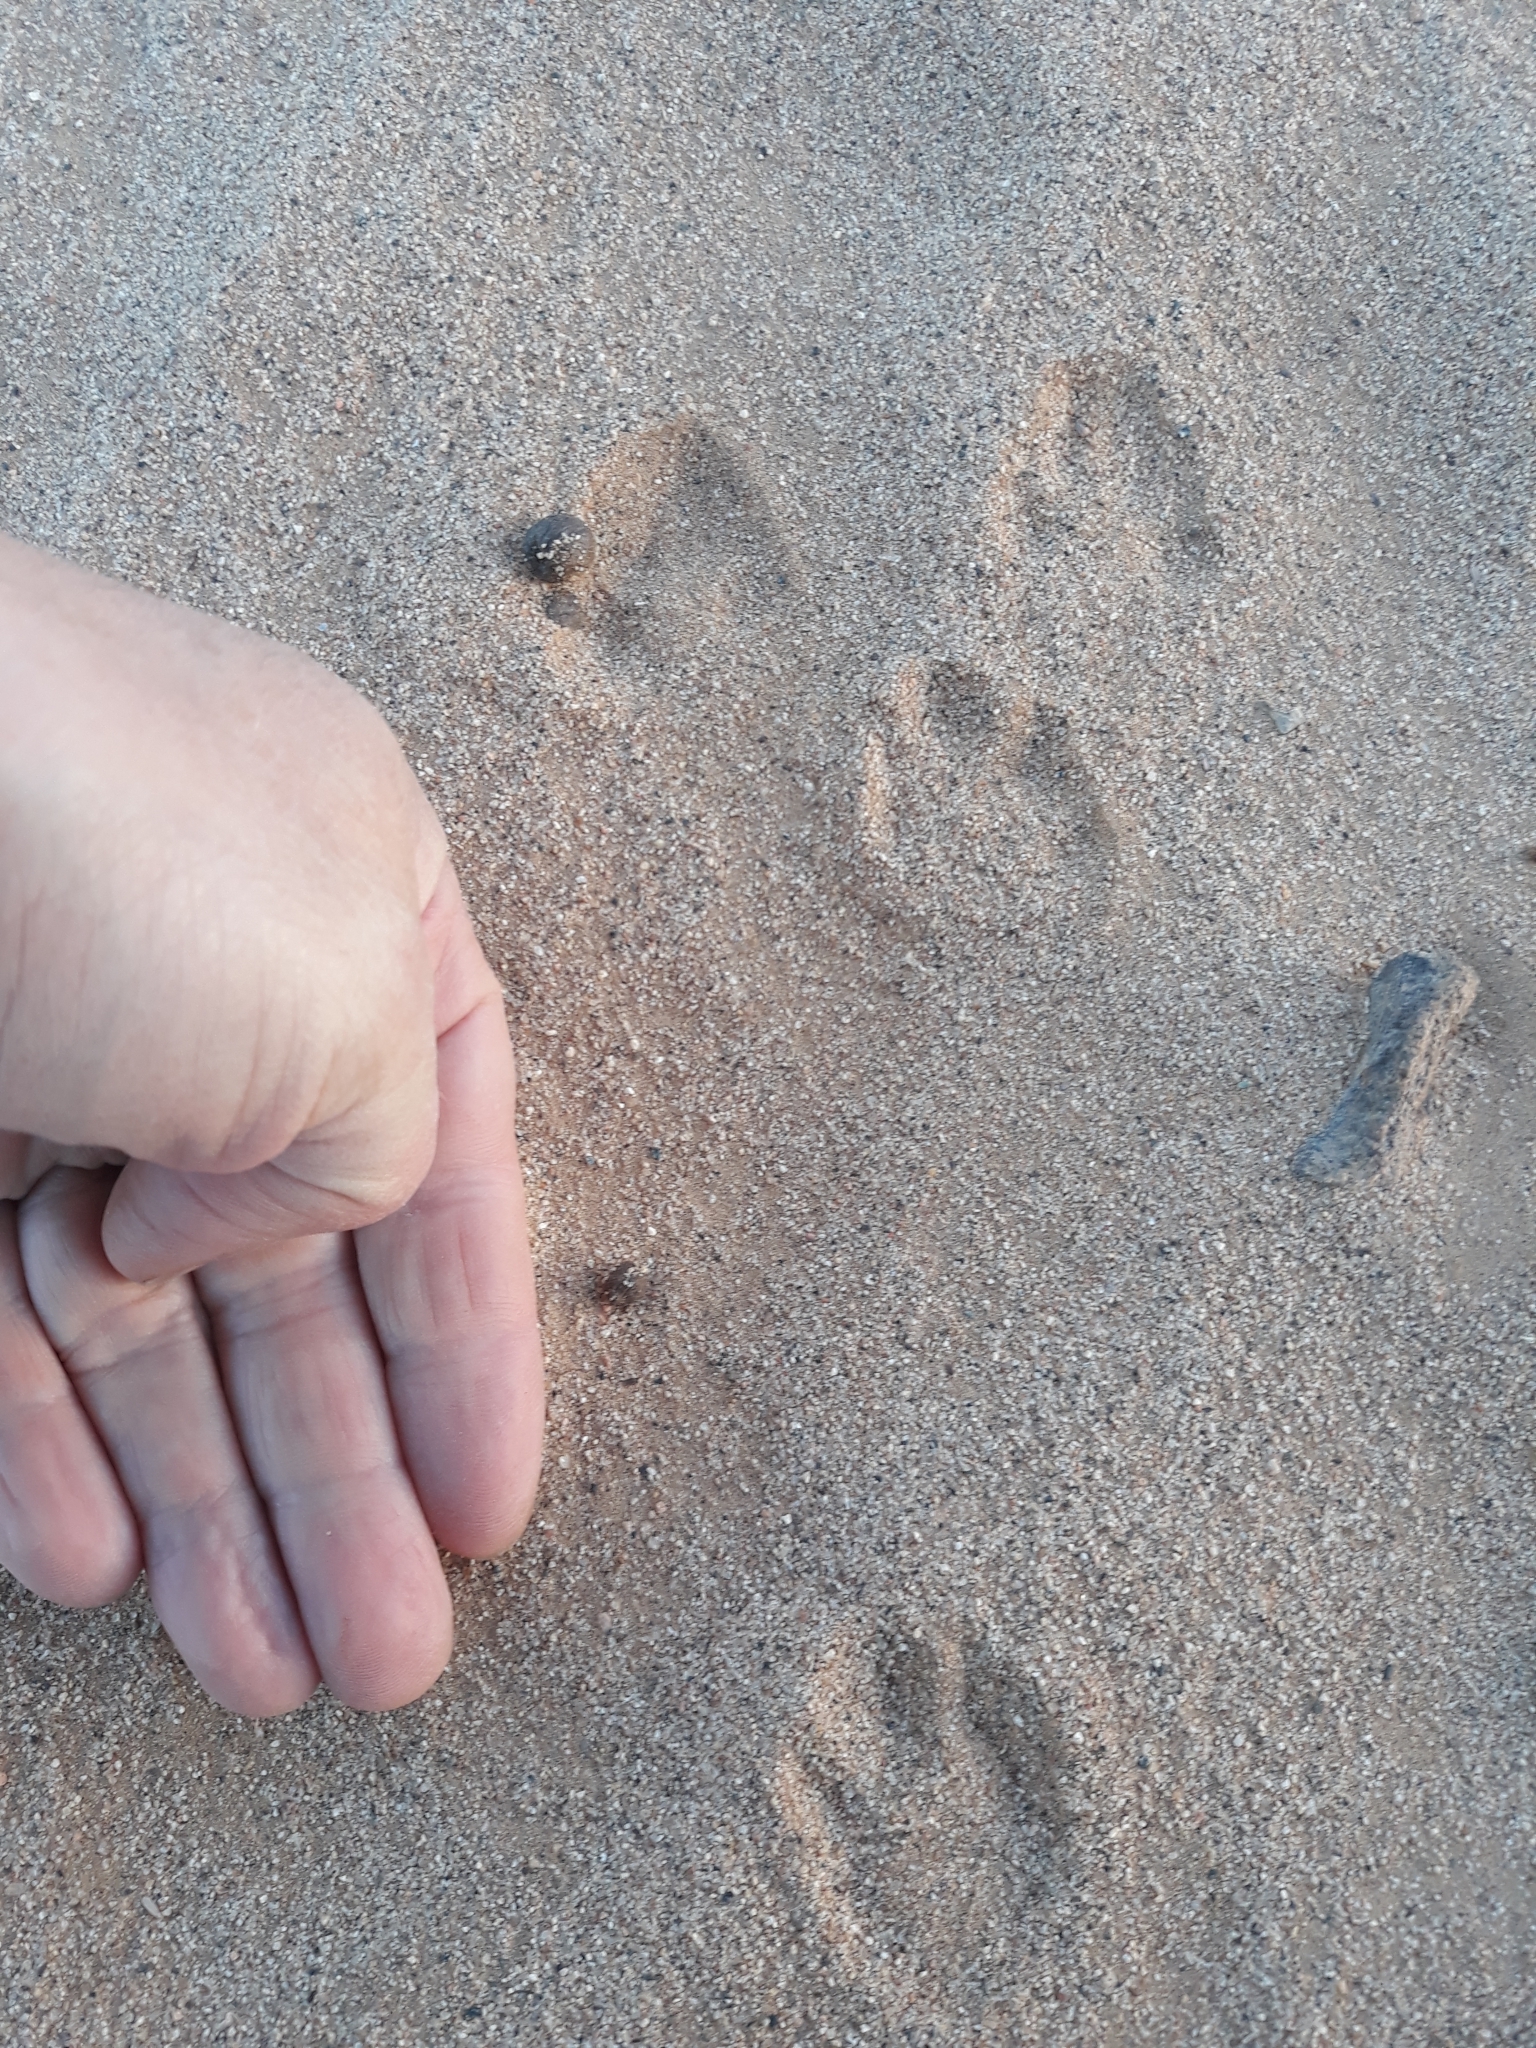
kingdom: Animalia
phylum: Chordata
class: Mammalia
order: Lagomorpha
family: Leporidae
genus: Lepus
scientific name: Lepus capensis
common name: Cape hare
